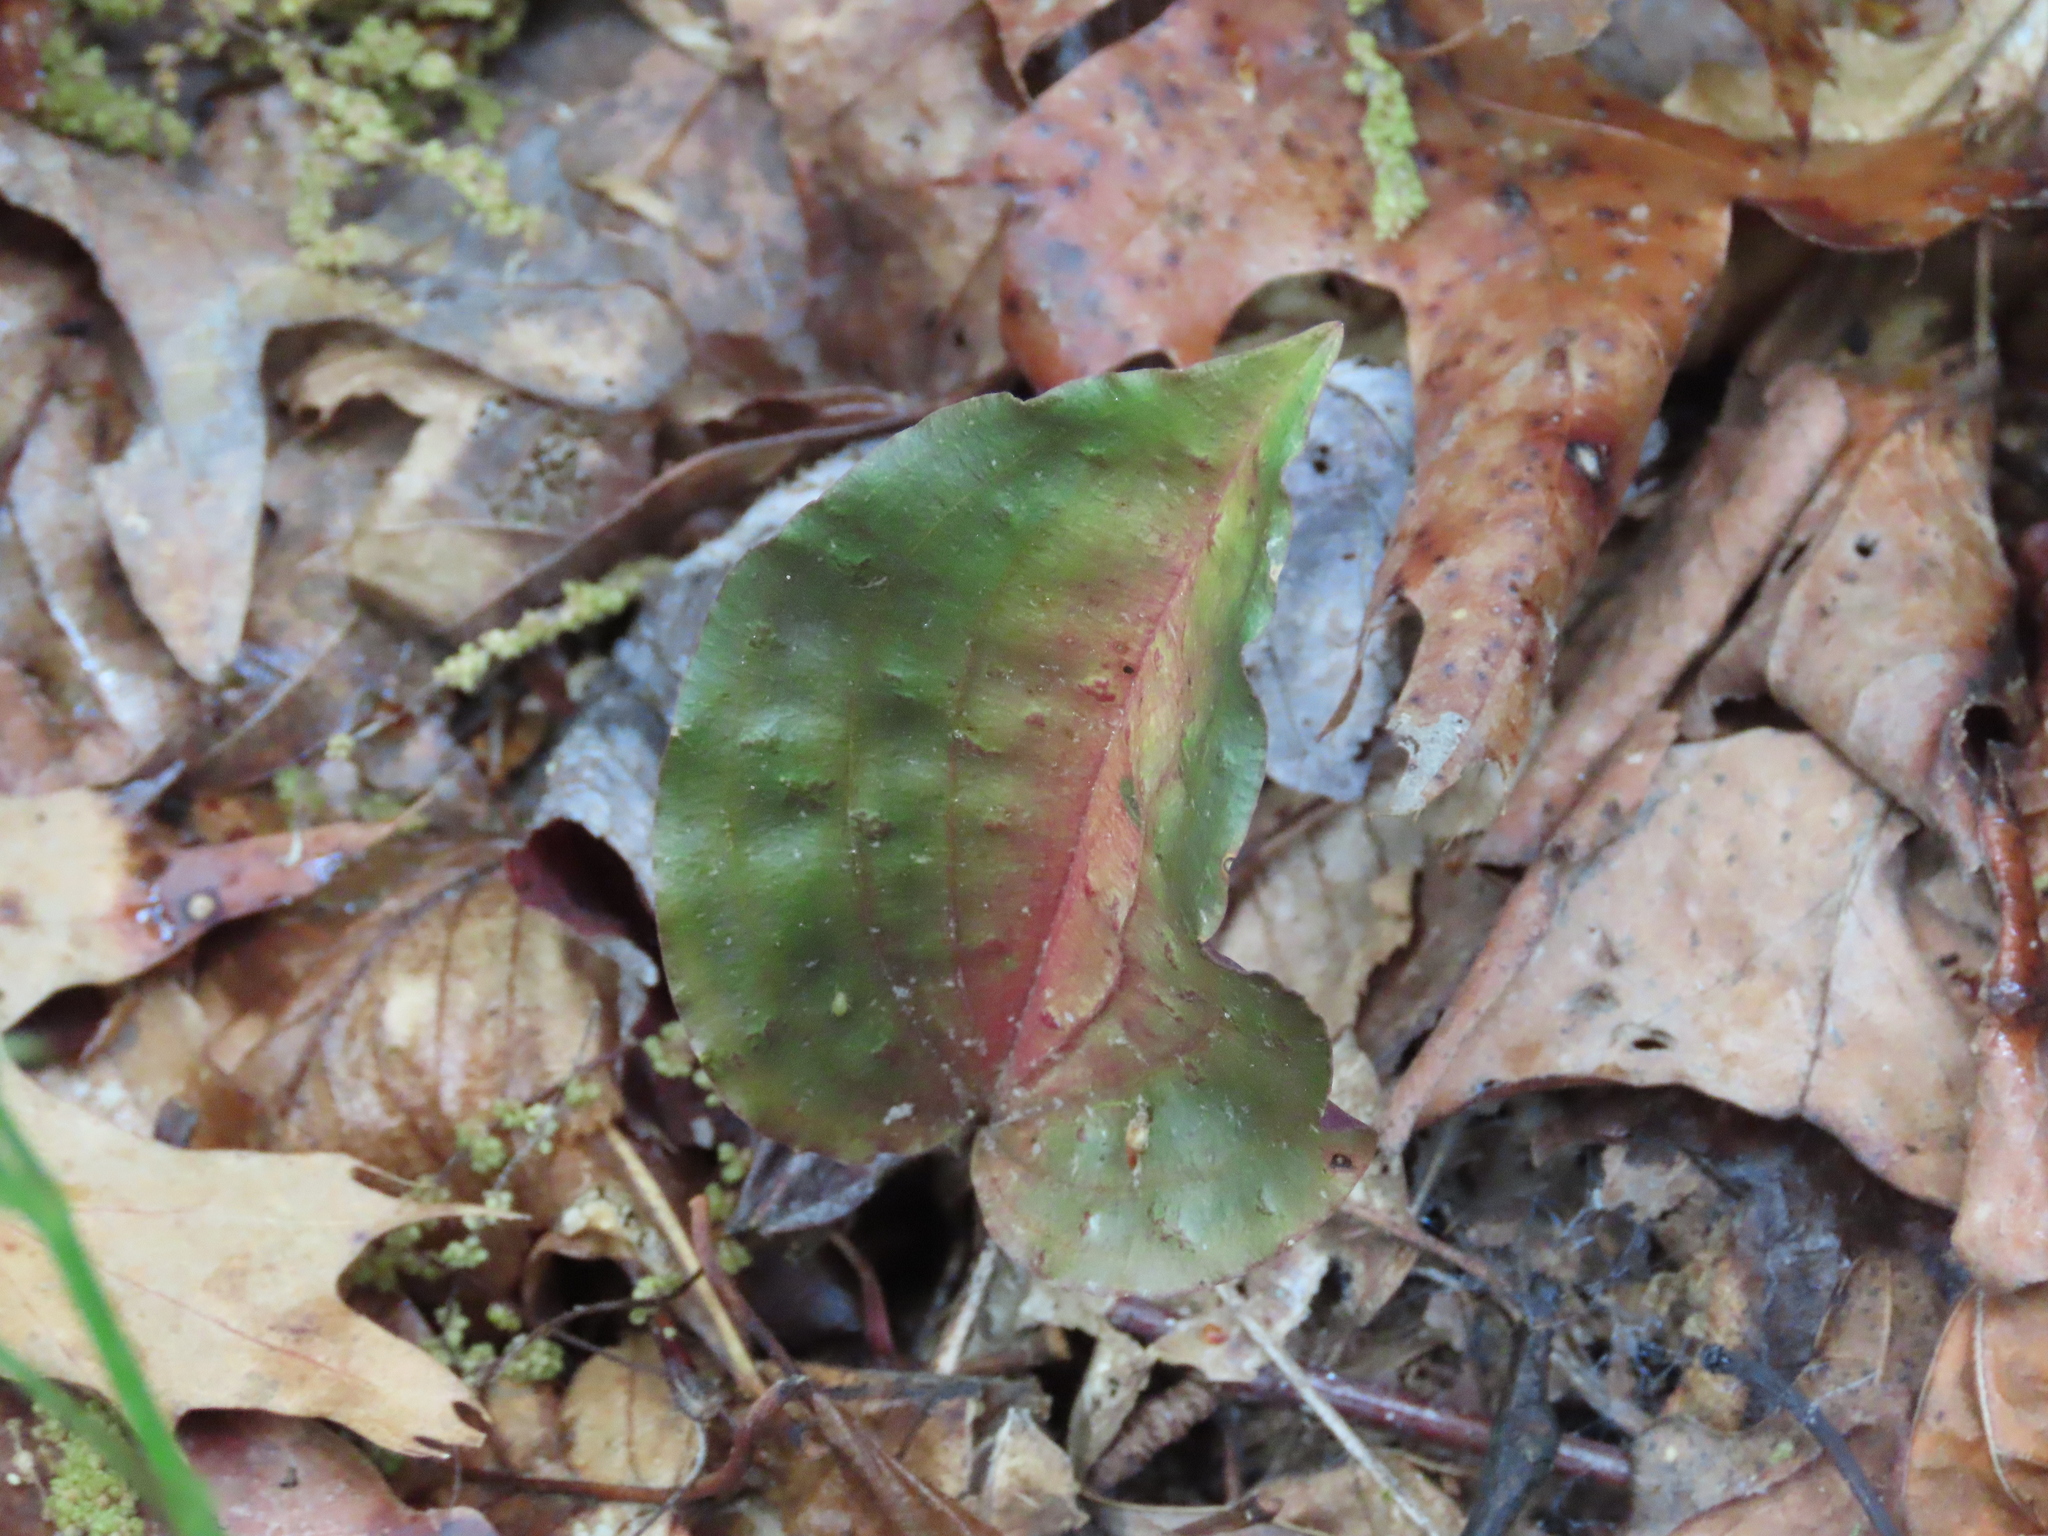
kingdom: Plantae
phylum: Tracheophyta
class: Liliopsida
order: Asparagales
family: Orchidaceae
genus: Tipularia
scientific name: Tipularia discolor
